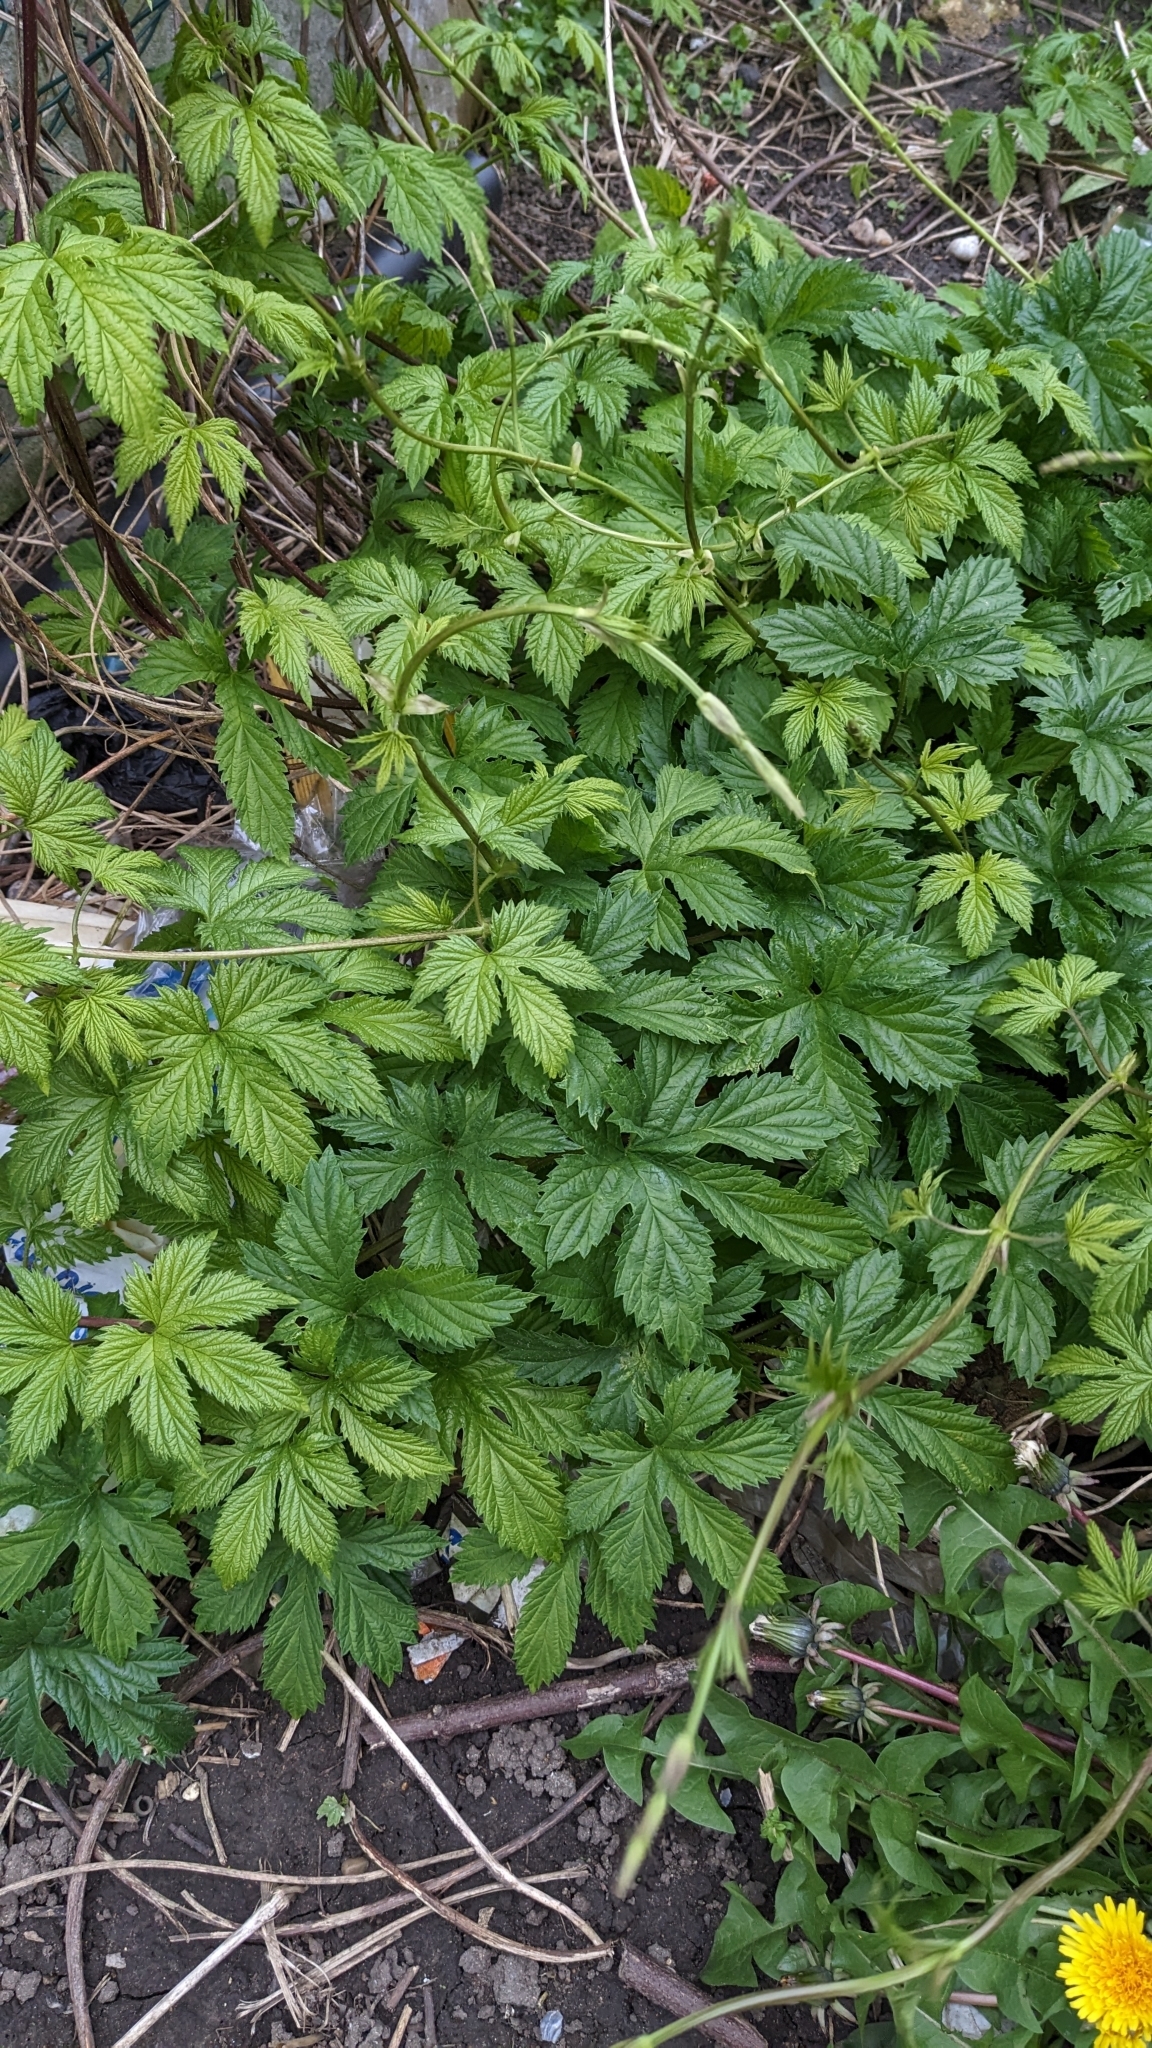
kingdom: Plantae
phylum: Tracheophyta
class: Magnoliopsida
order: Rosales
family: Cannabaceae
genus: Humulus
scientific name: Humulus lupulus
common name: Hop
